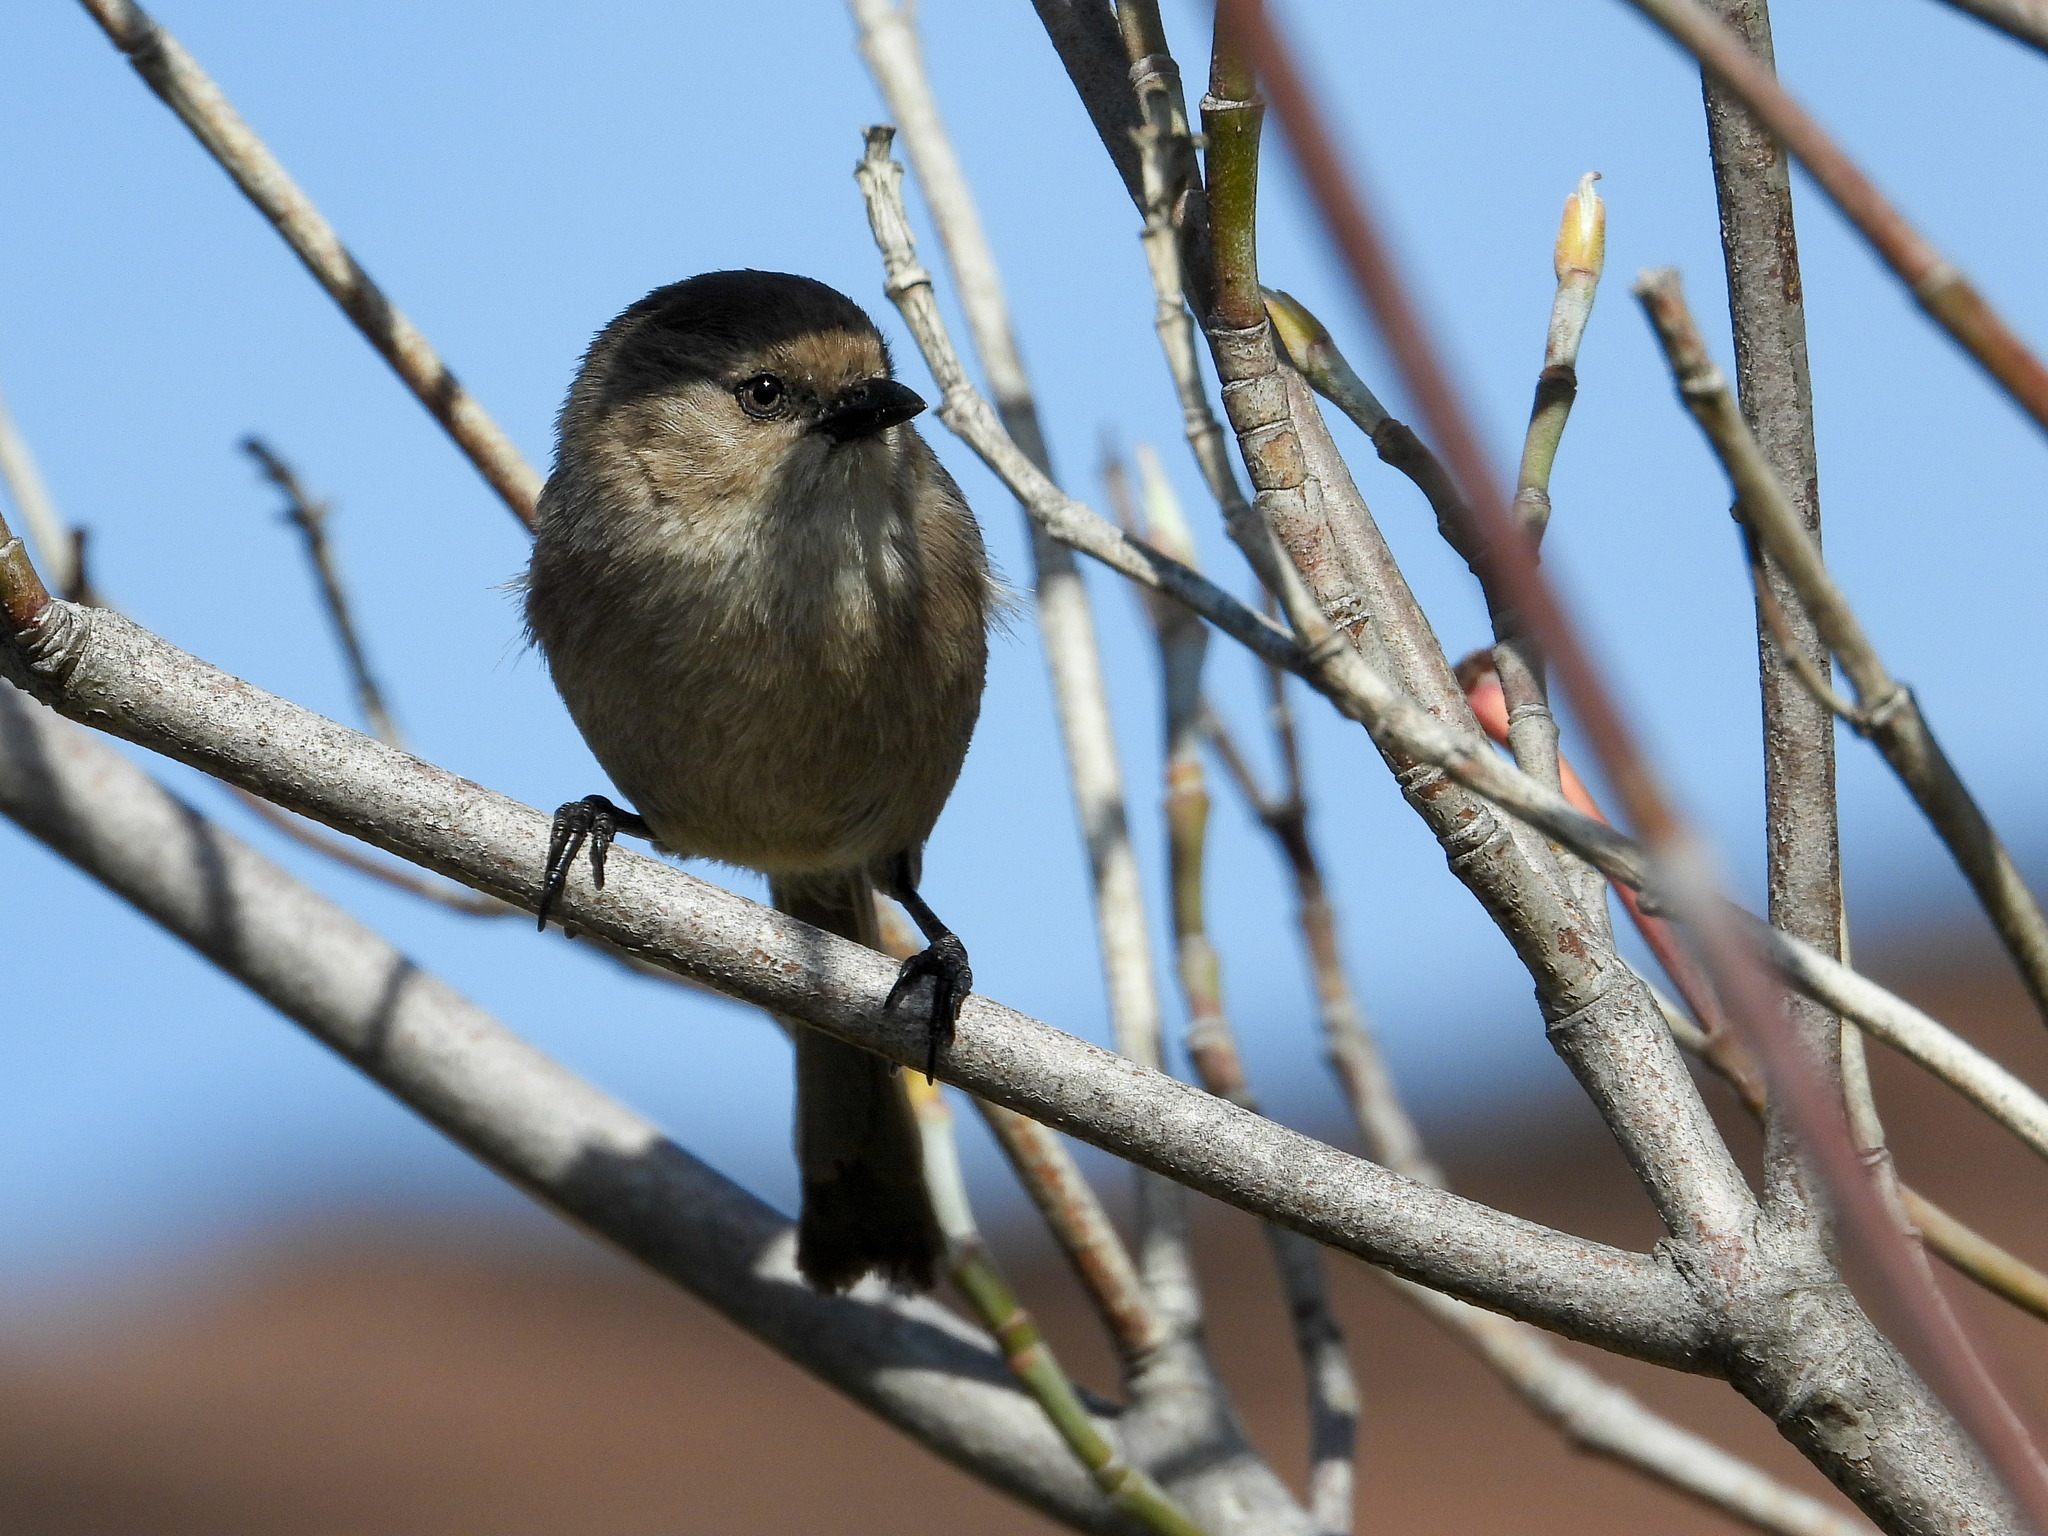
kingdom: Animalia
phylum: Chordata
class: Aves
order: Passeriformes
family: Aegithalidae
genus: Psaltriparus
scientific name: Psaltriparus minimus
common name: American bushtit
